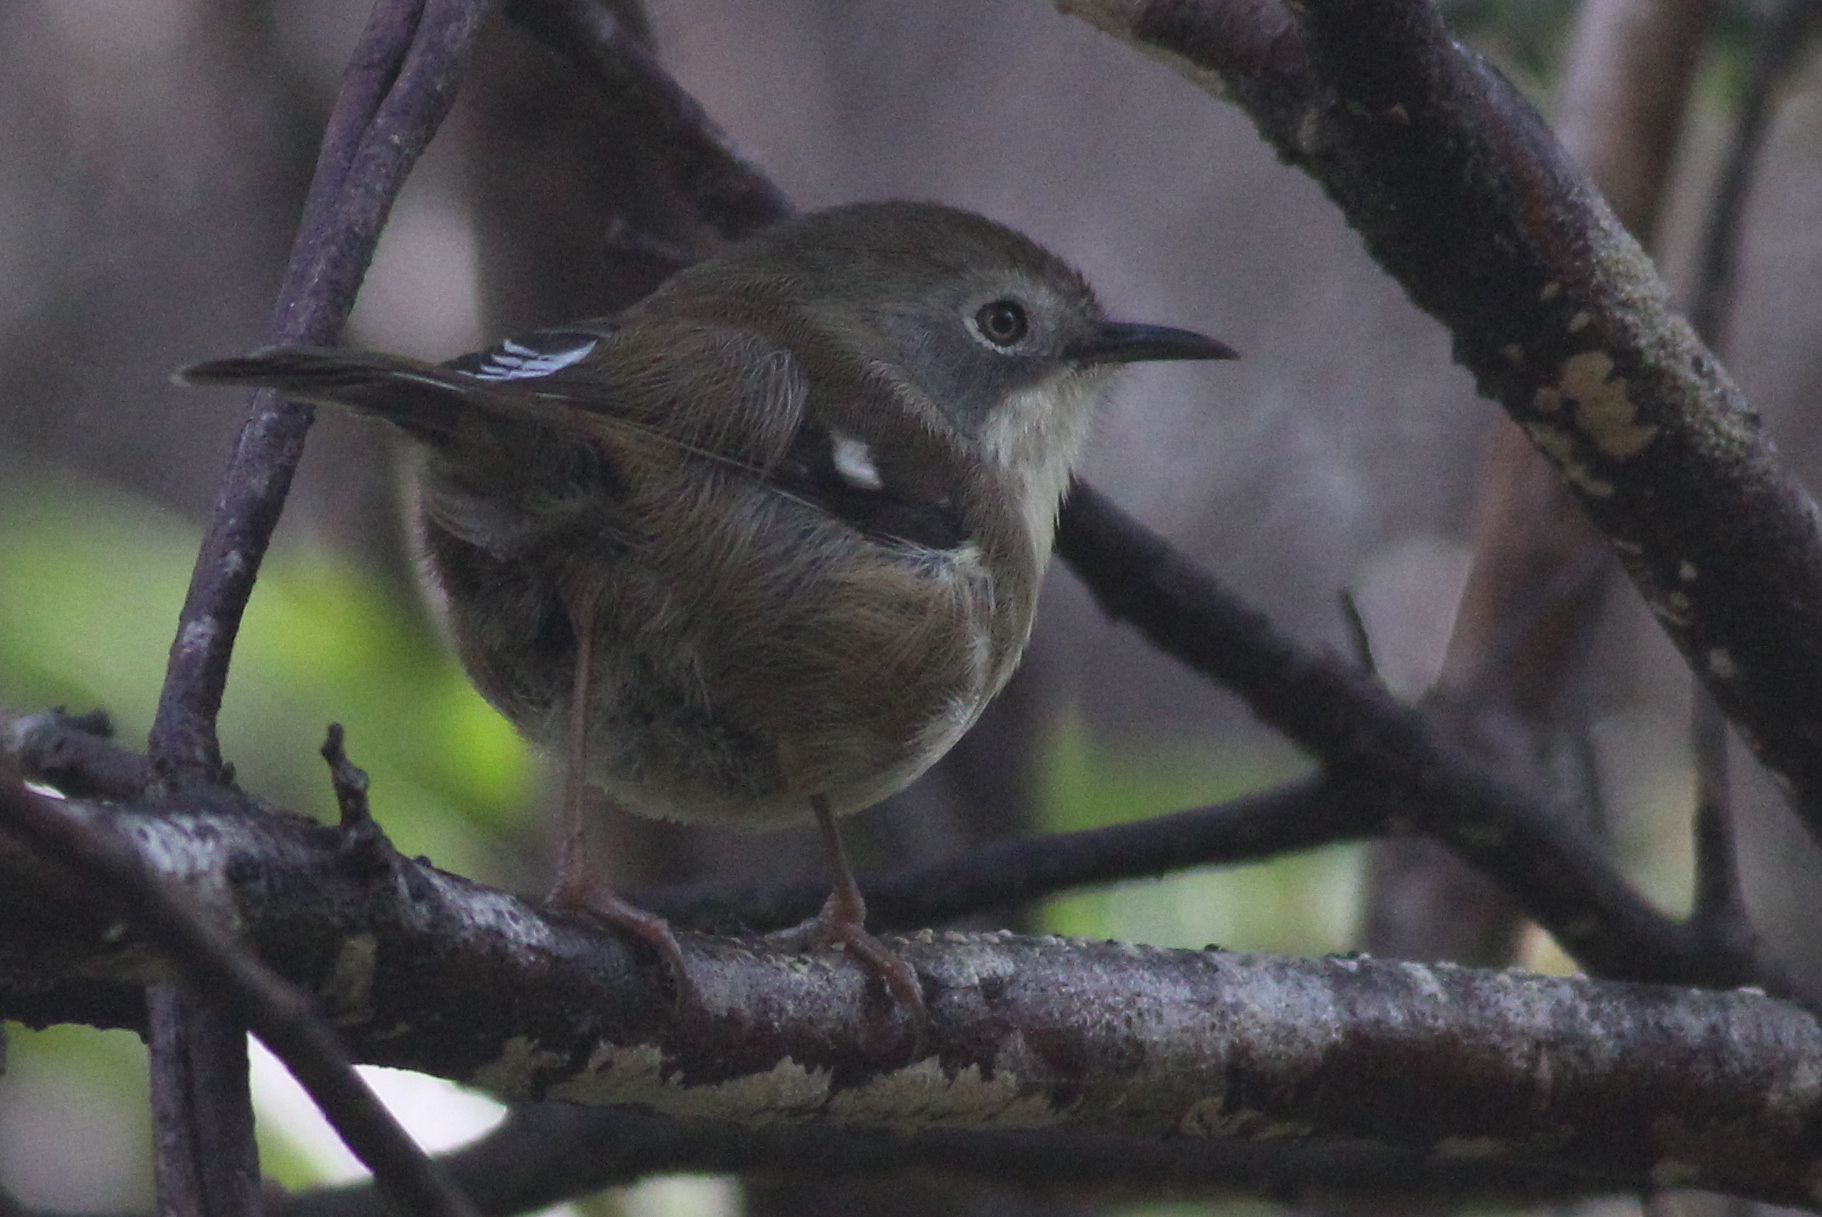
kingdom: Animalia
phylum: Chordata
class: Aves
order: Passeriformes
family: Acanthizidae
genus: Acanthornis
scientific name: Acanthornis magna
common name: Scrubtit
